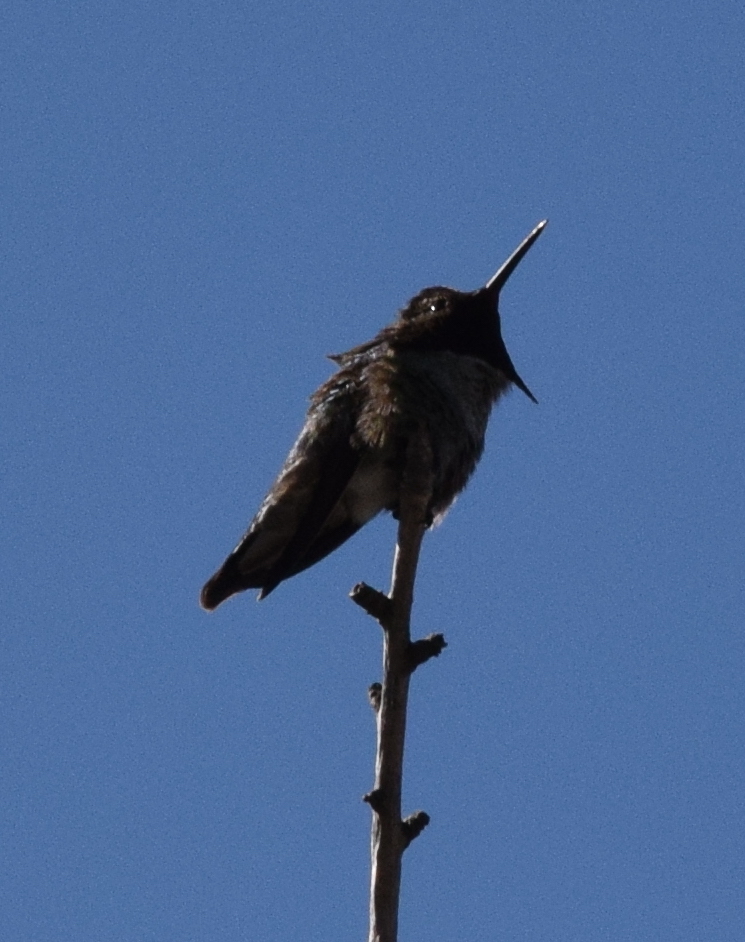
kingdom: Animalia
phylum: Chordata
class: Aves
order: Apodiformes
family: Trochilidae
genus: Calypte
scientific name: Calypte anna
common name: Anna's hummingbird
